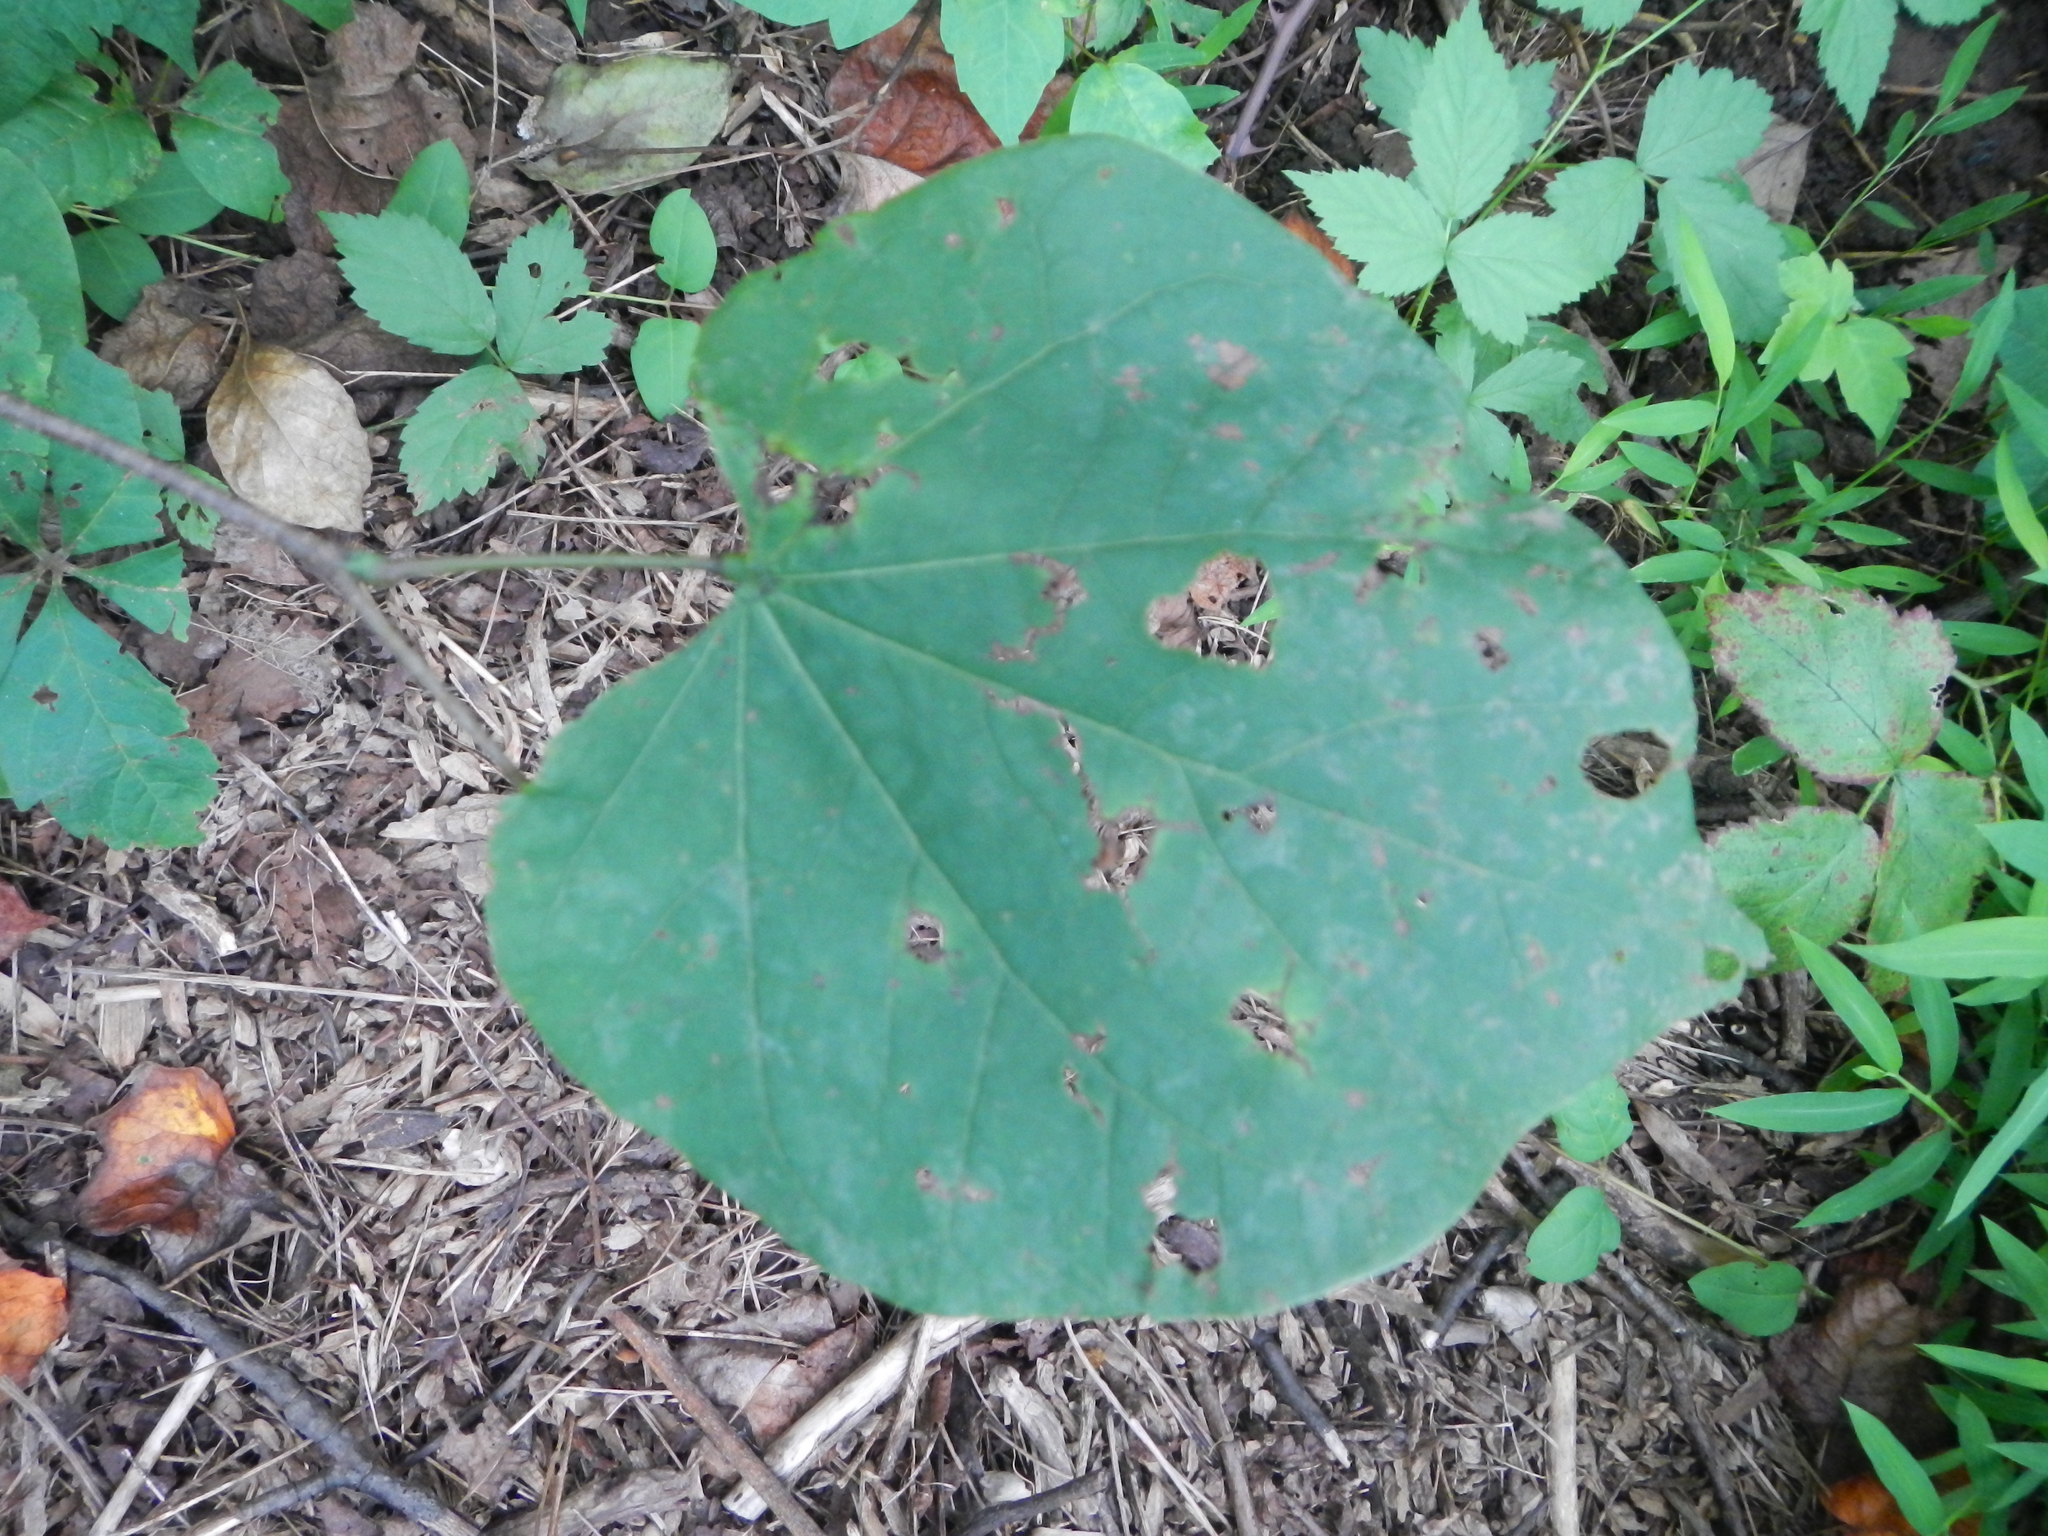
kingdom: Plantae
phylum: Tracheophyta
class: Magnoliopsida
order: Fabales
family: Fabaceae
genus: Cercis
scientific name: Cercis canadensis
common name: Eastern redbud
